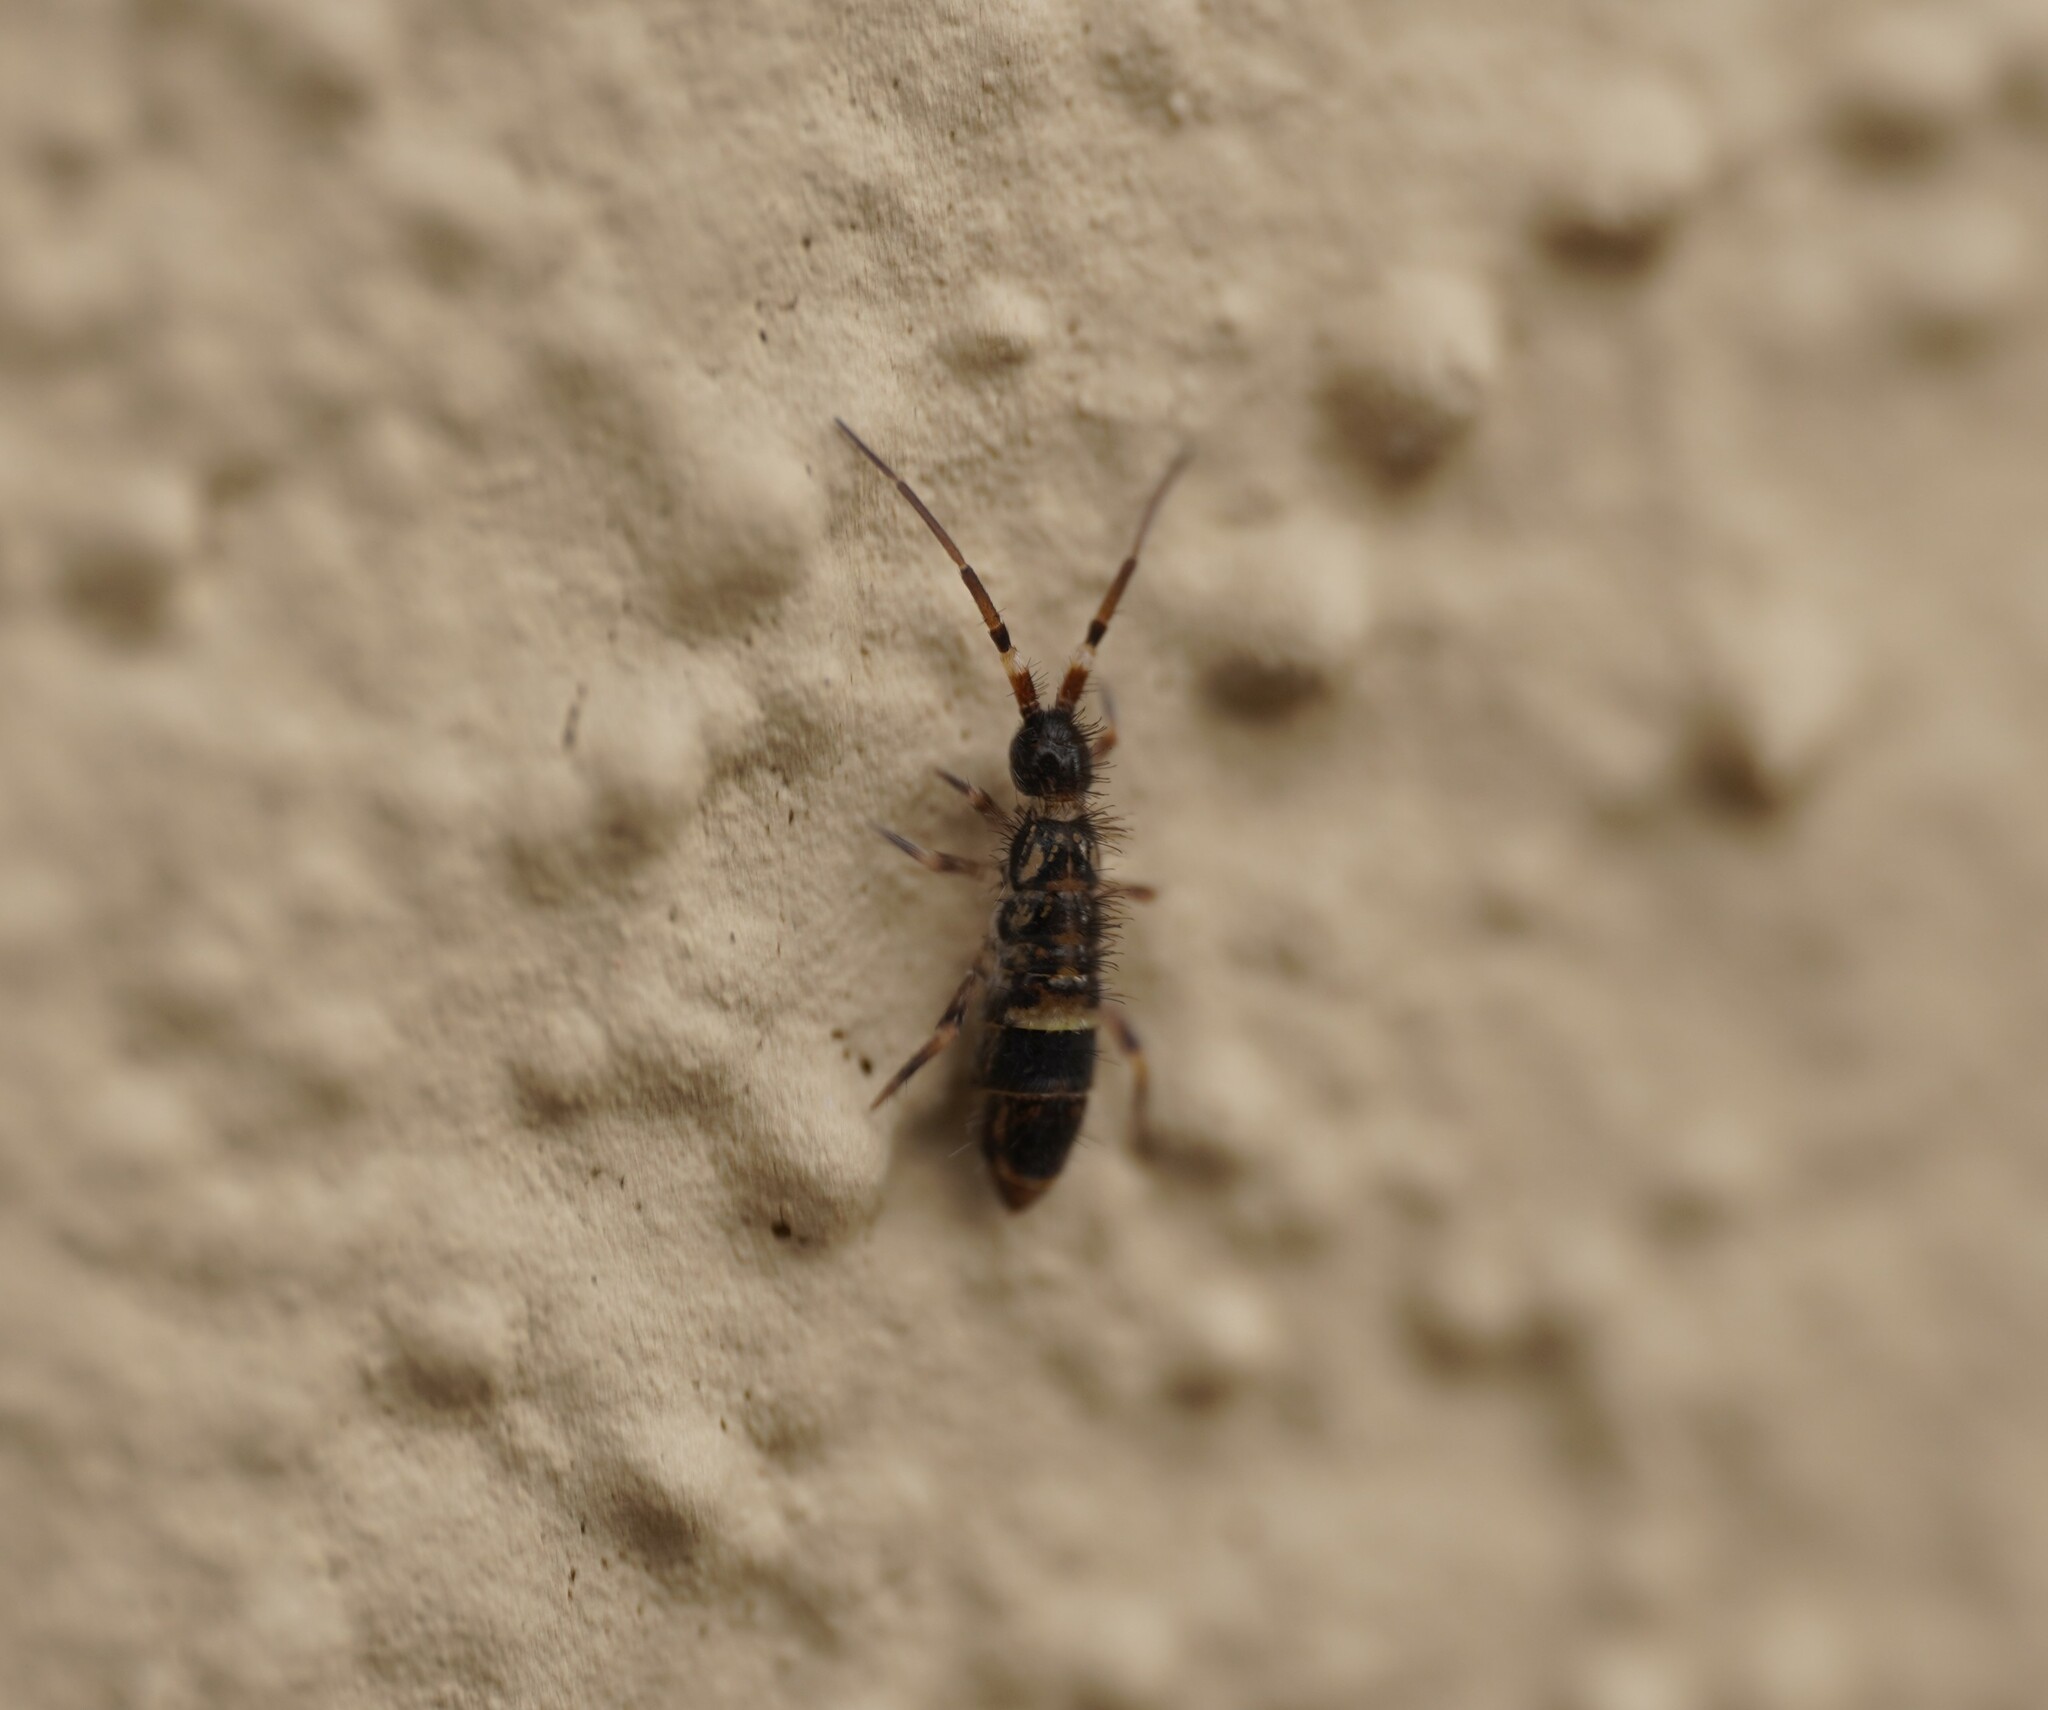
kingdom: Animalia
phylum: Arthropoda
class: Collembola
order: Entomobryomorpha
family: Orchesellidae
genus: Orchesella
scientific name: Orchesella cincta
